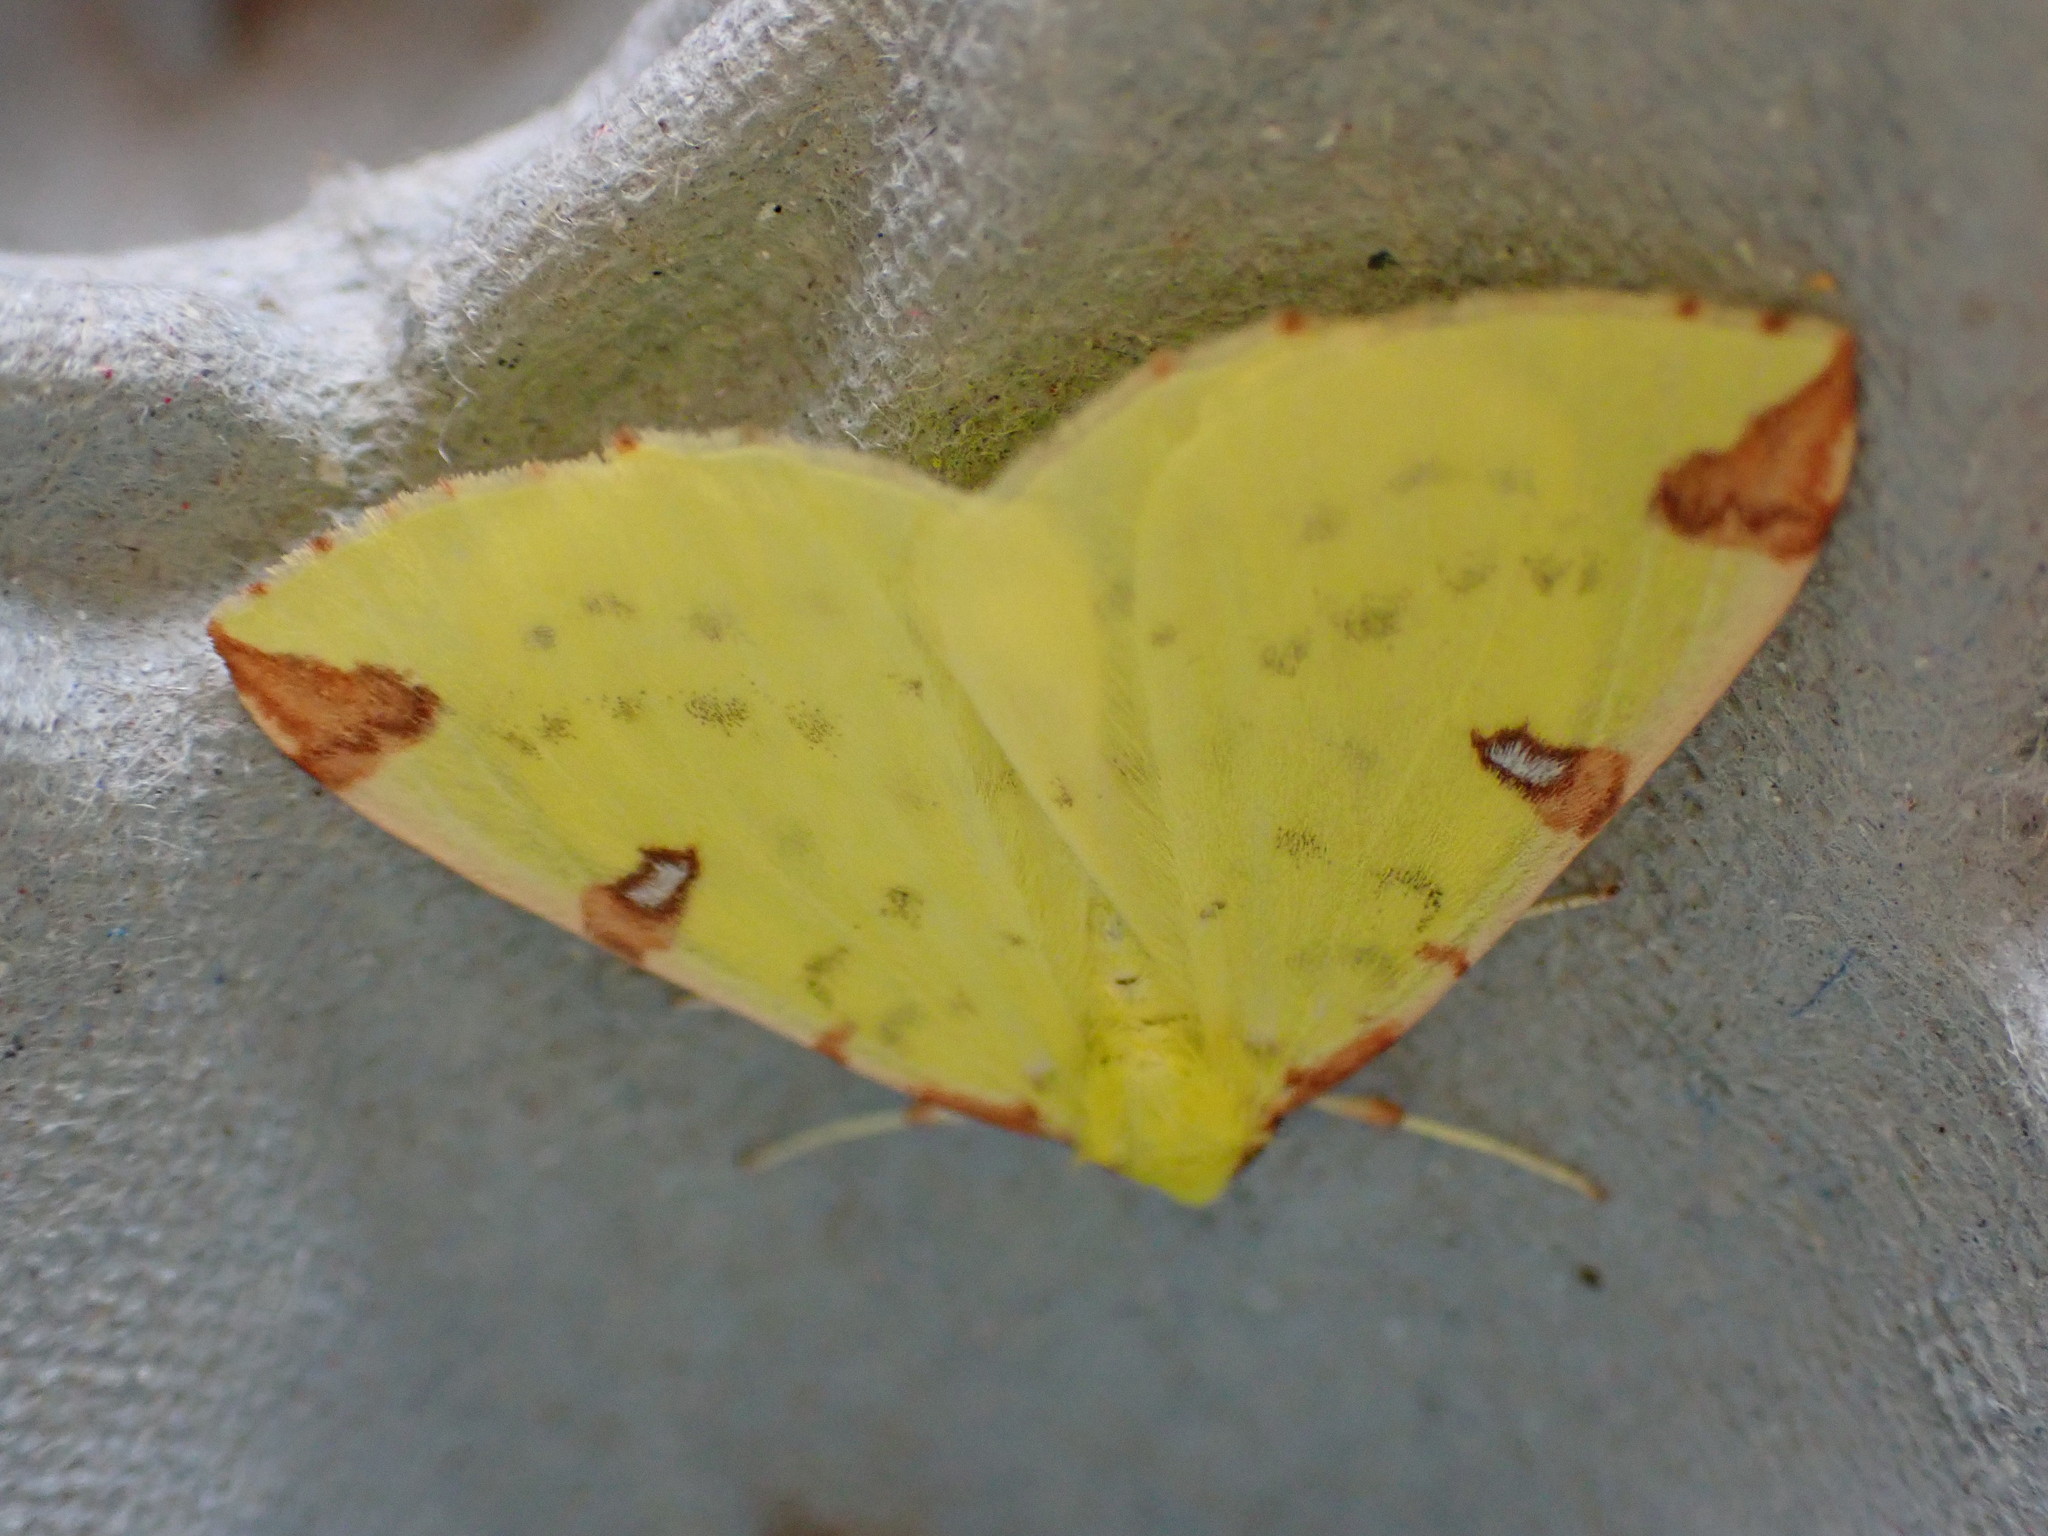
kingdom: Animalia
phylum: Arthropoda
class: Insecta
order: Lepidoptera
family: Geometridae
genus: Opisthograptis
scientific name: Opisthograptis luteolata
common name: Brimstone moth
